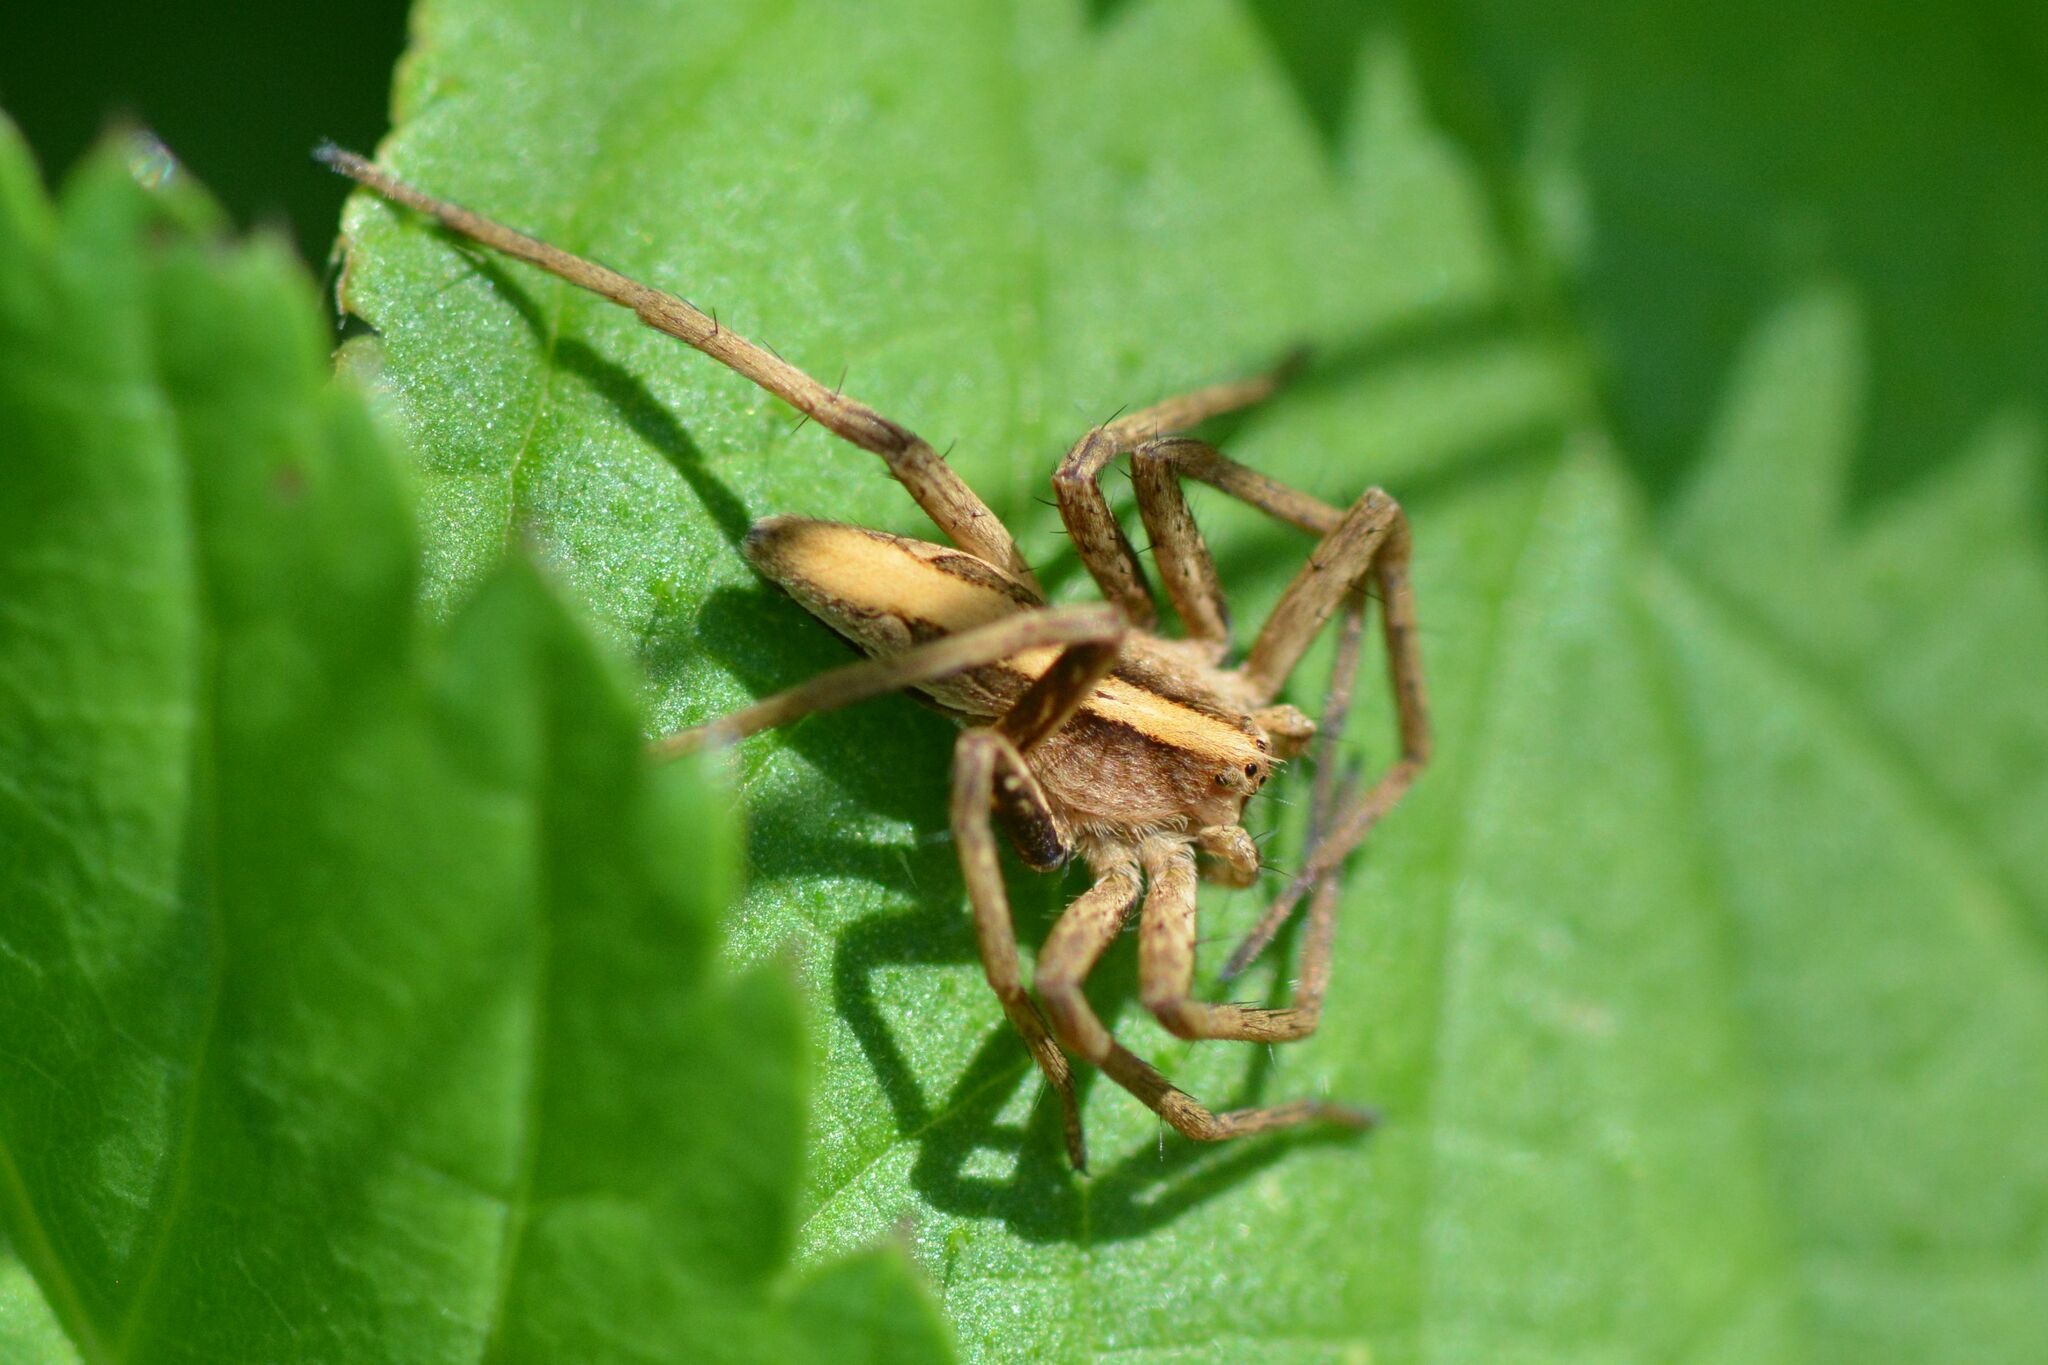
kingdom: Animalia
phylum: Arthropoda
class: Arachnida
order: Araneae
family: Pisauridae
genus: Pisaura
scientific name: Pisaura mirabilis
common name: Tent spider
